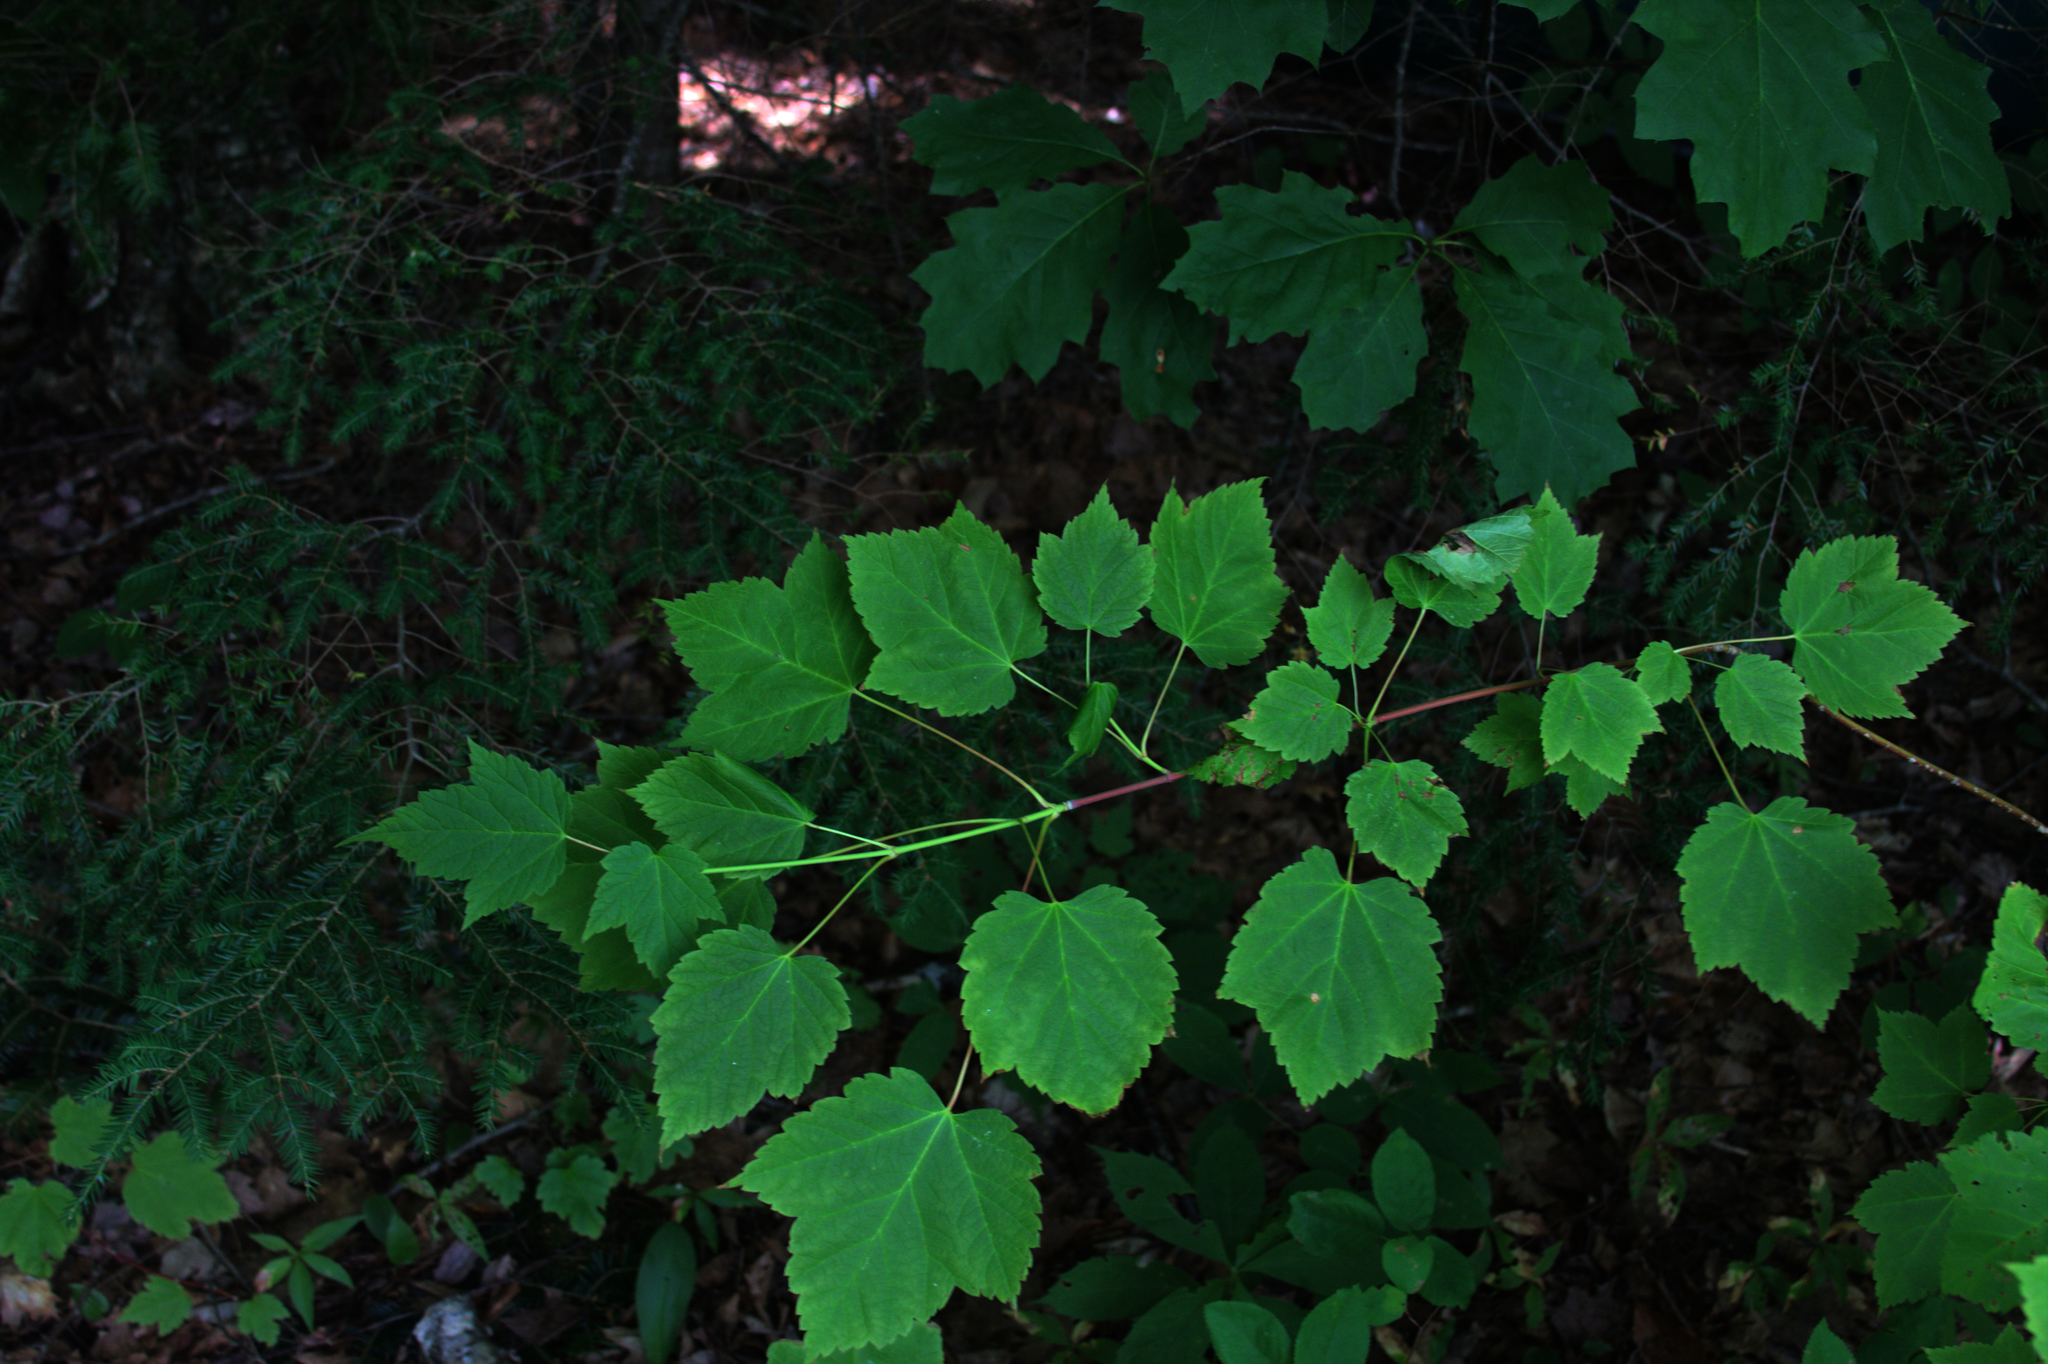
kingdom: Plantae
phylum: Tracheophyta
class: Magnoliopsida
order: Sapindales
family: Sapindaceae
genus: Acer
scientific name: Acer spicatum
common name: Mountain maple
